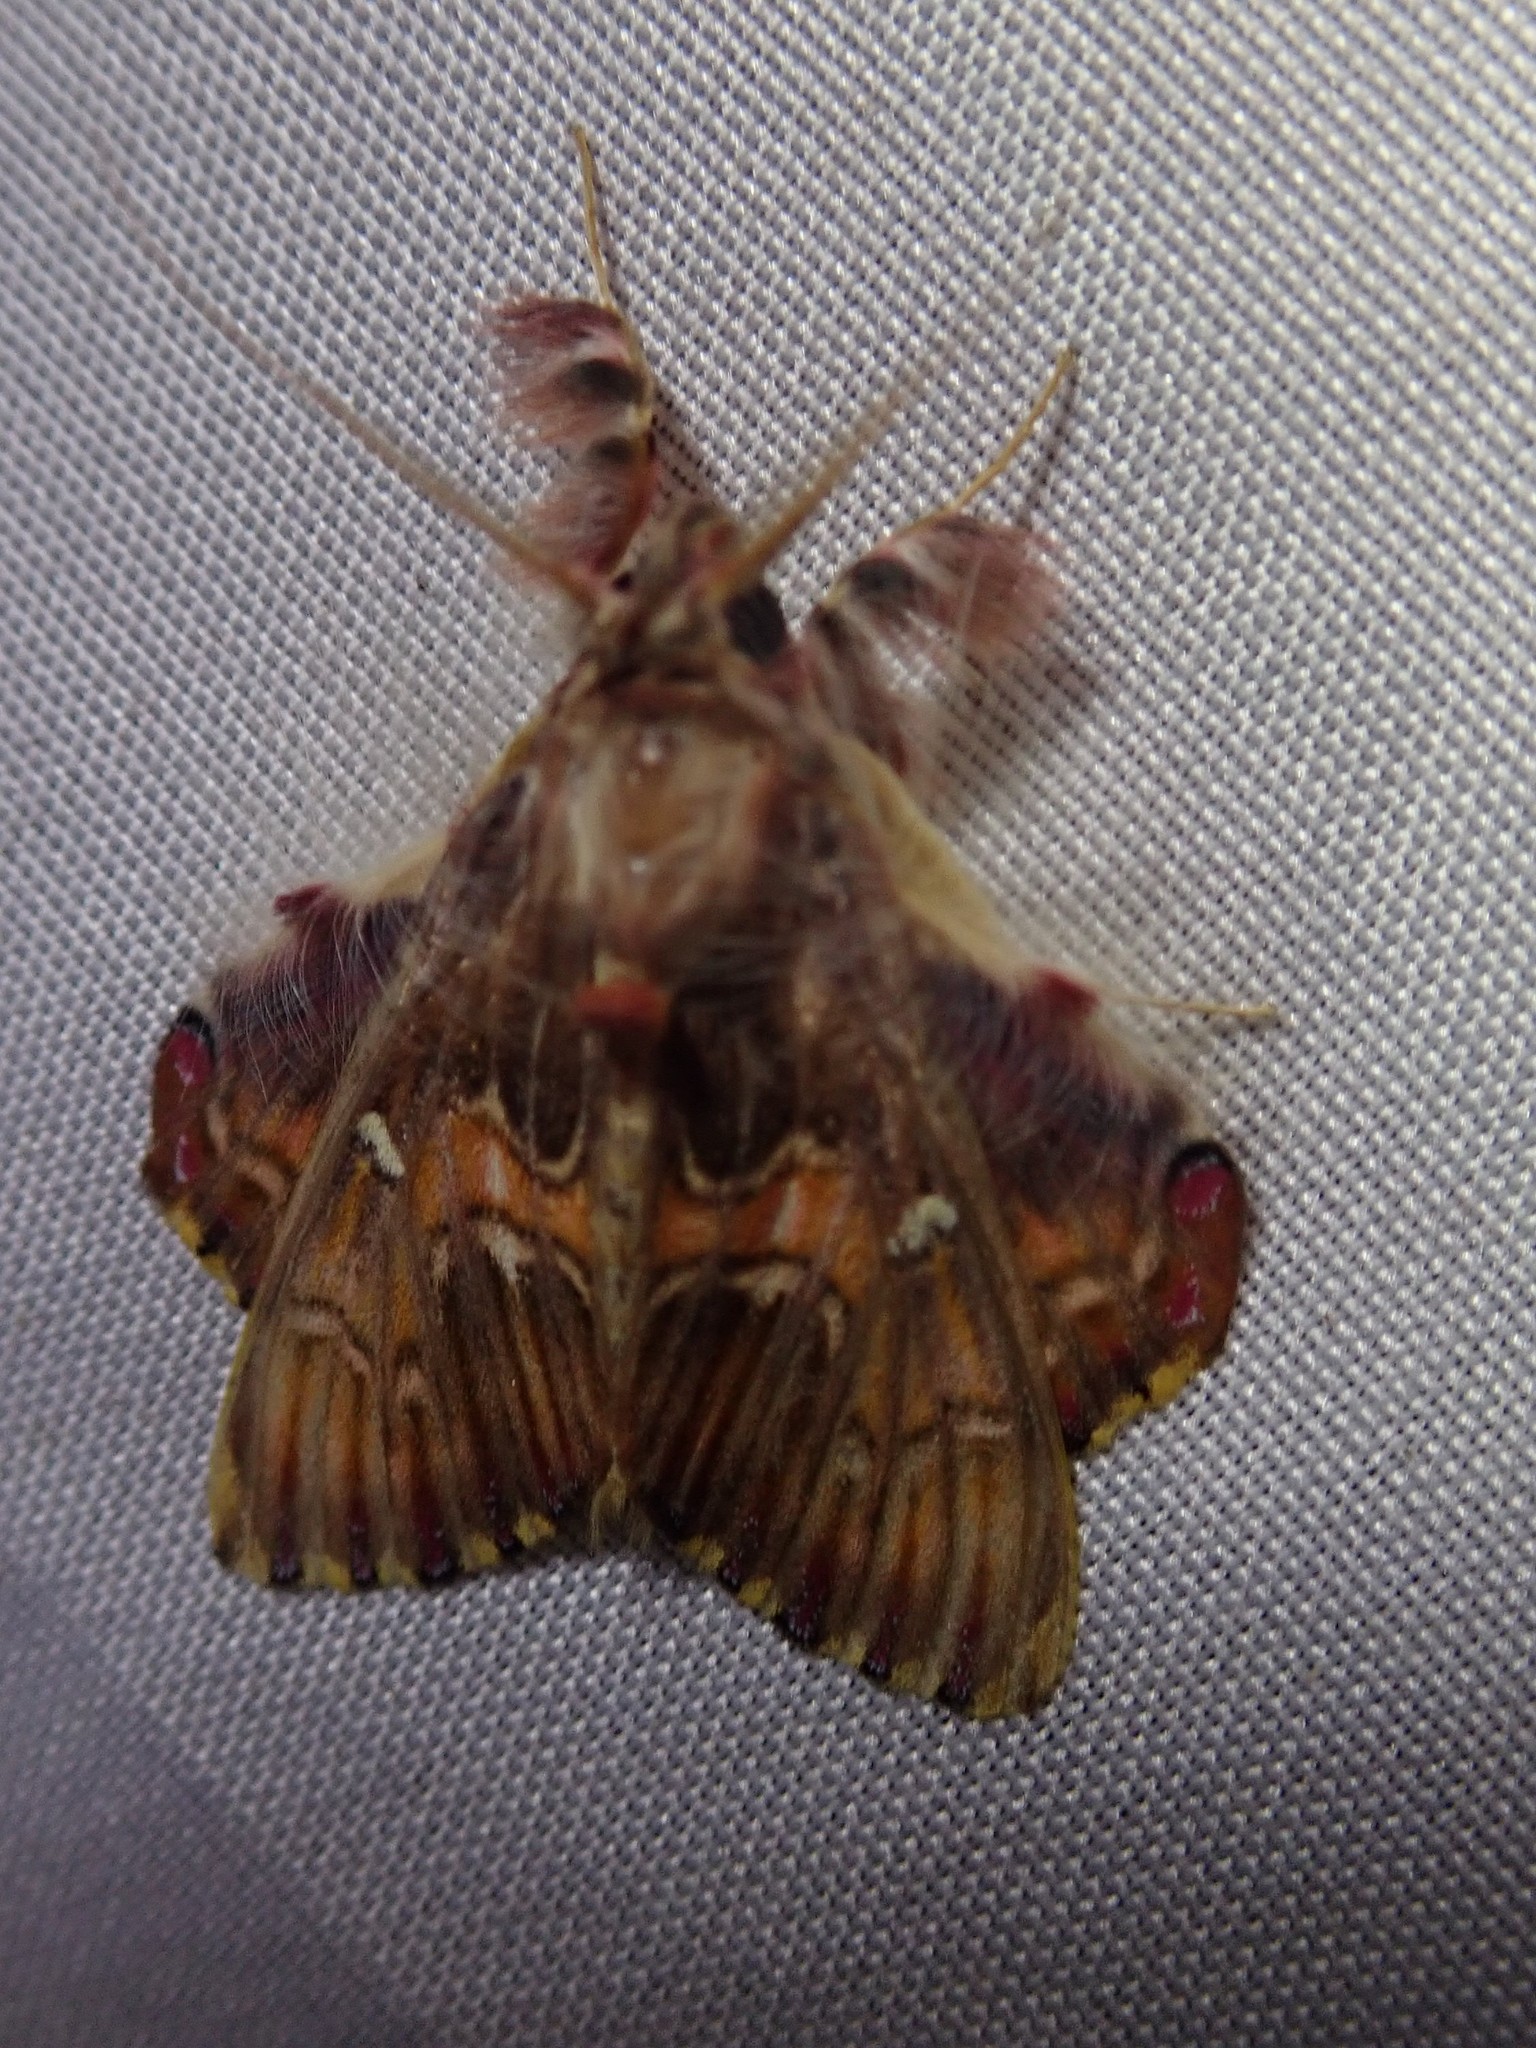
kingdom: Animalia
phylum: Arthropoda
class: Insecta
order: Lepidoptera
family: Erebidae
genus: Sosxetra
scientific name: Sosxetra grata
